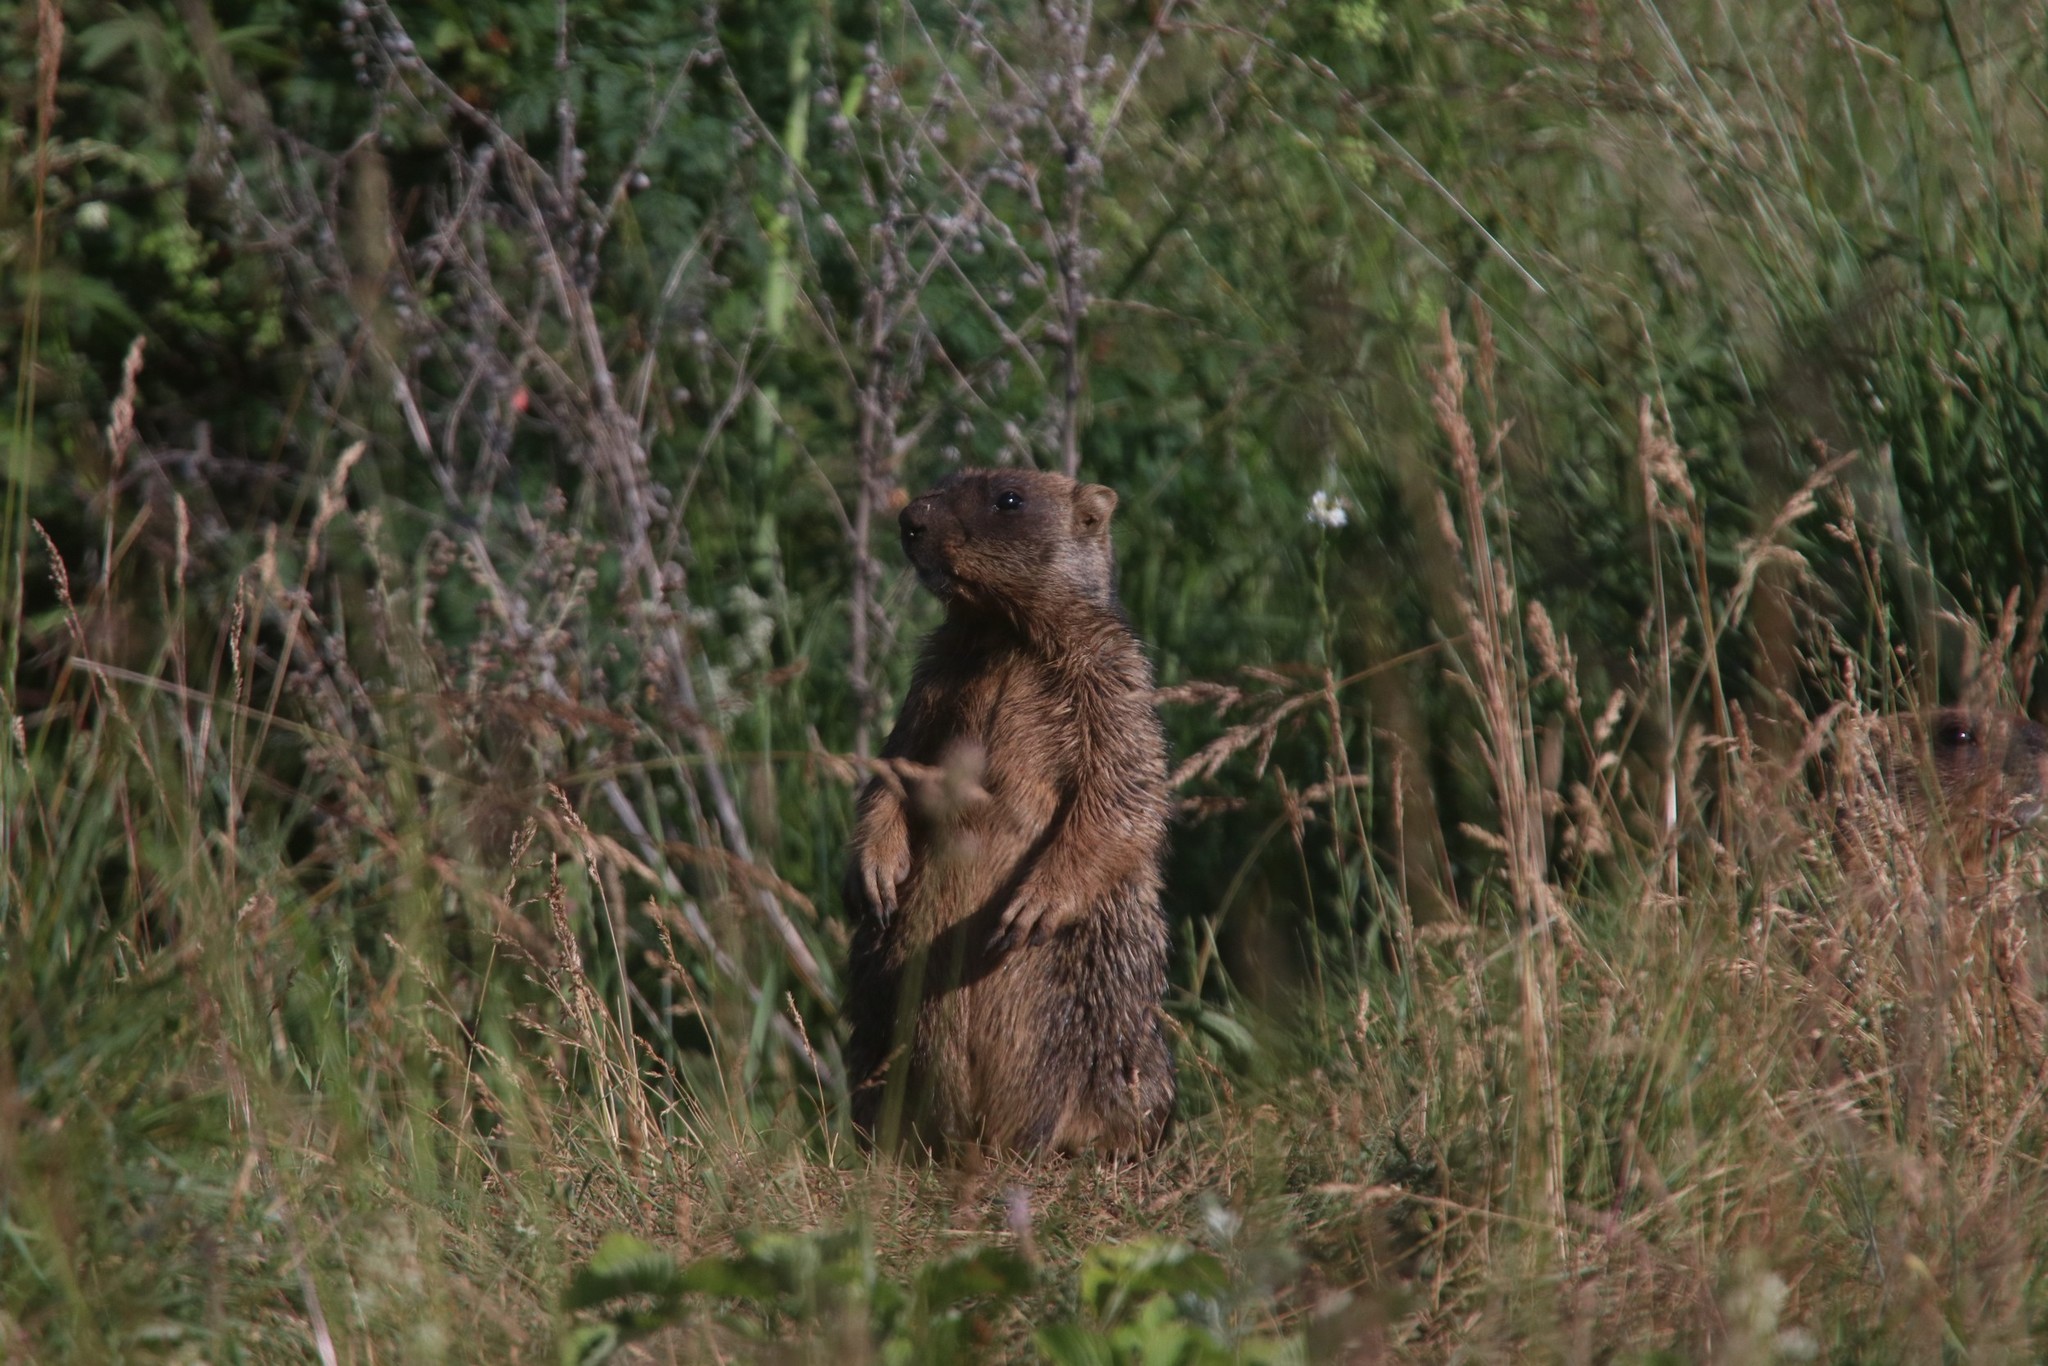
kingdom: Animalia
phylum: Chordata
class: Mammalia
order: Rodentia
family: Sciuridae
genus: Marmota
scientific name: Marmota bobak
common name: Bobak marmot
